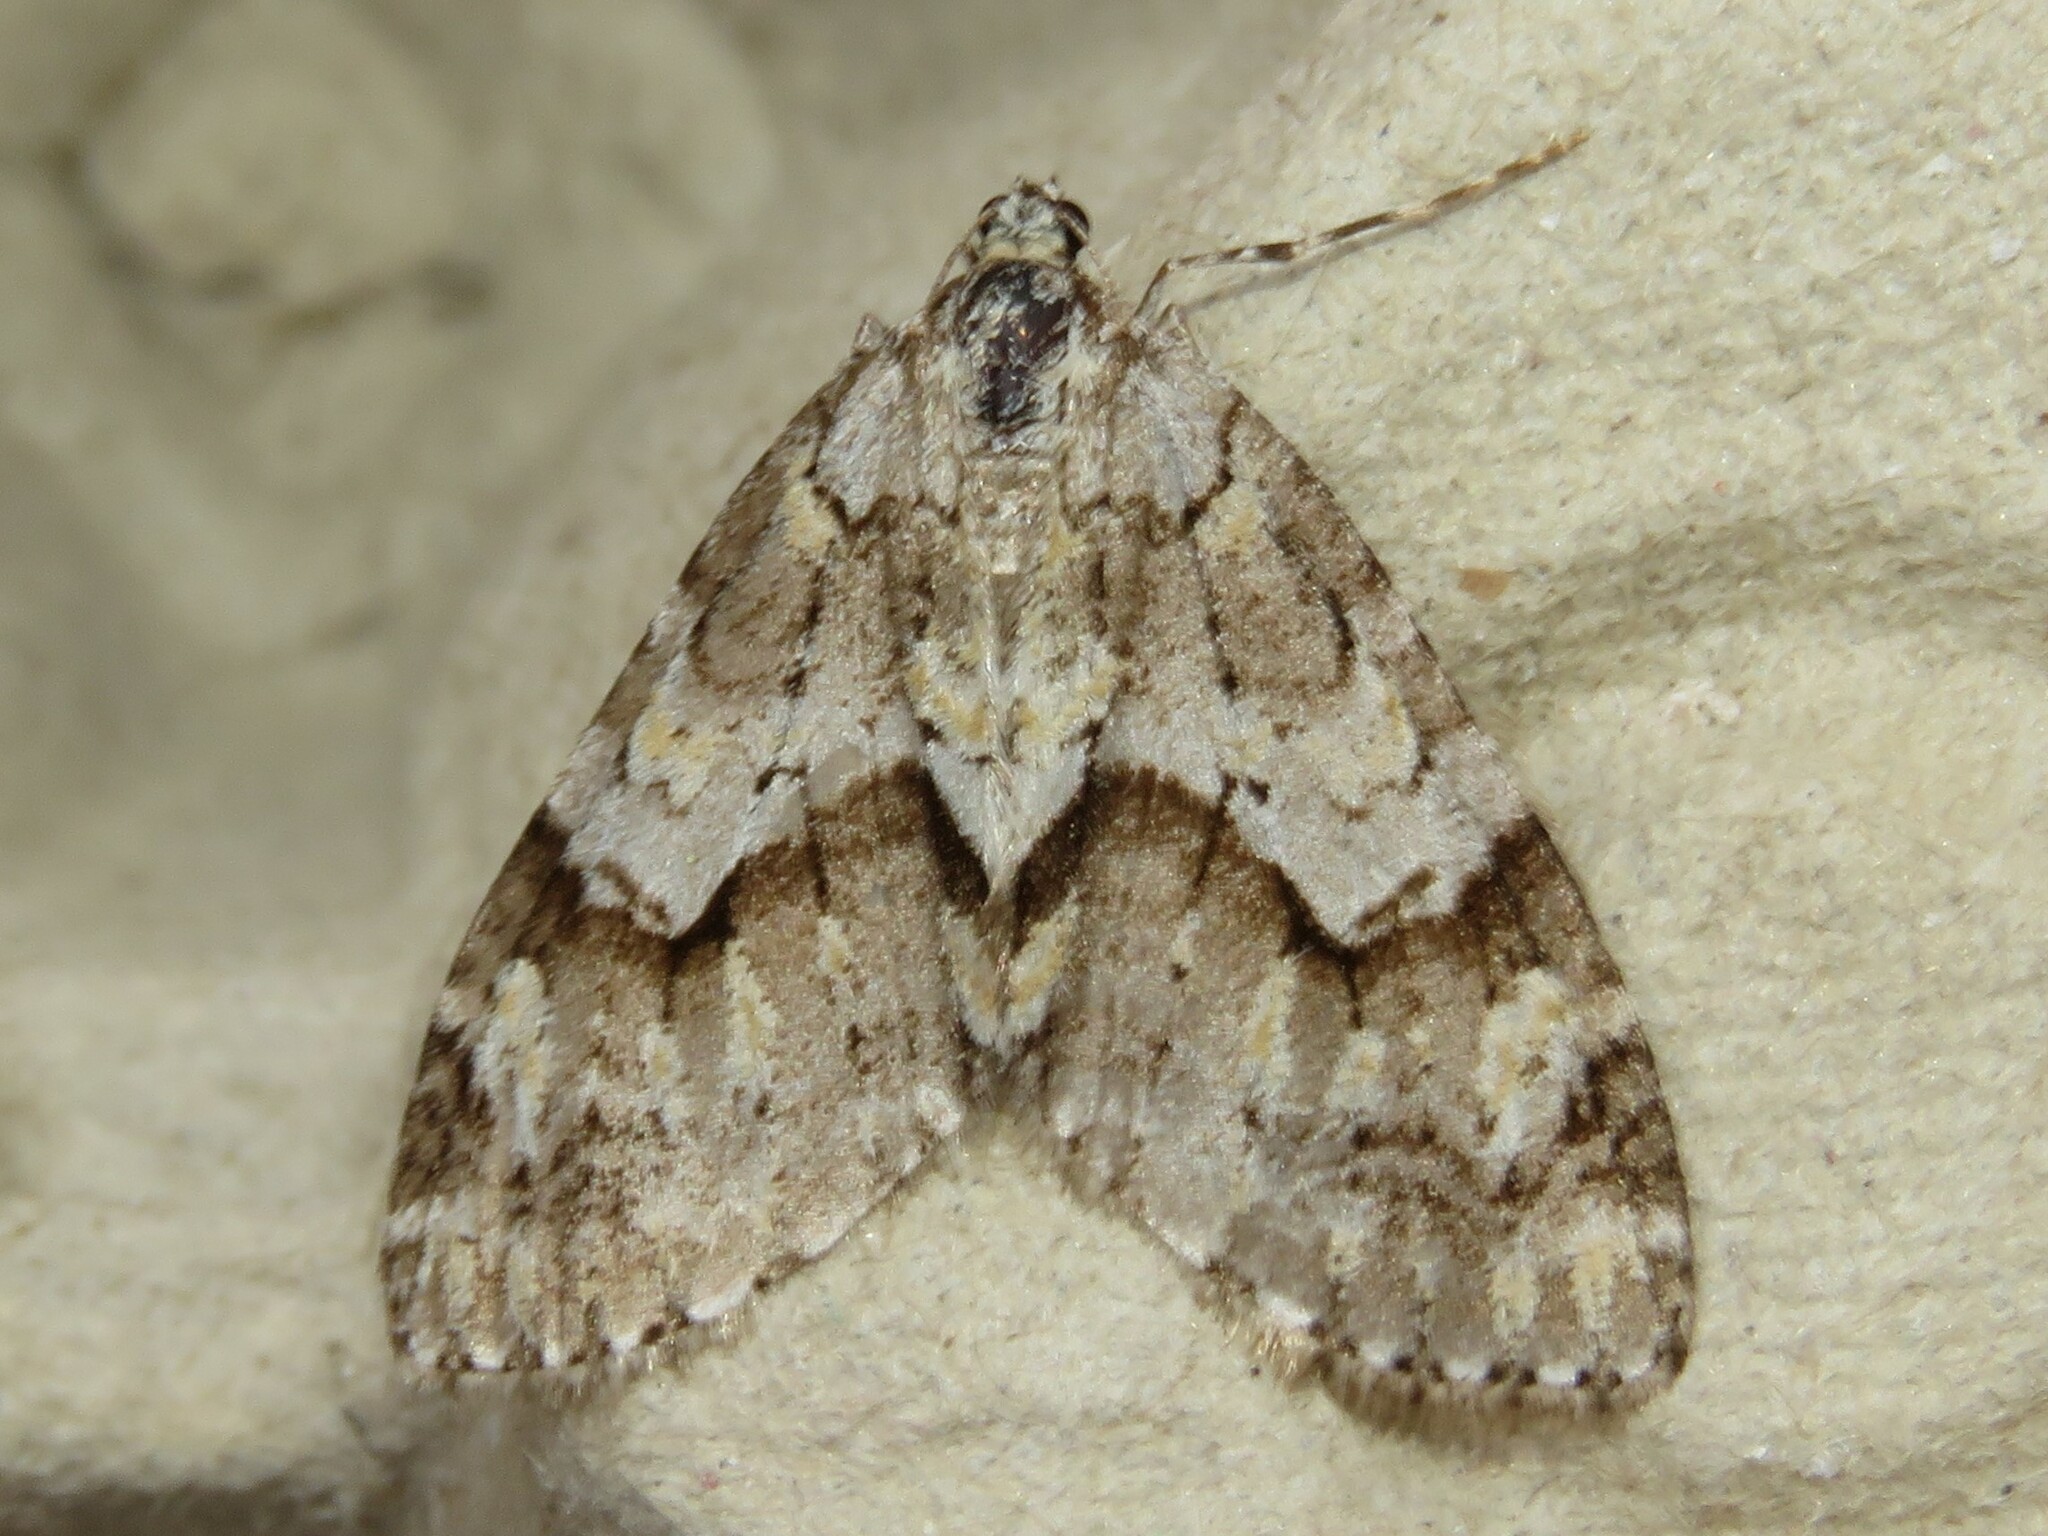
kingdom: Animalia
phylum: Arthropoda
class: Insecta
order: Lepidoptera
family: Geometridae
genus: Cladara
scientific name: Cladara limitaria
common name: Mottled gray carpet
